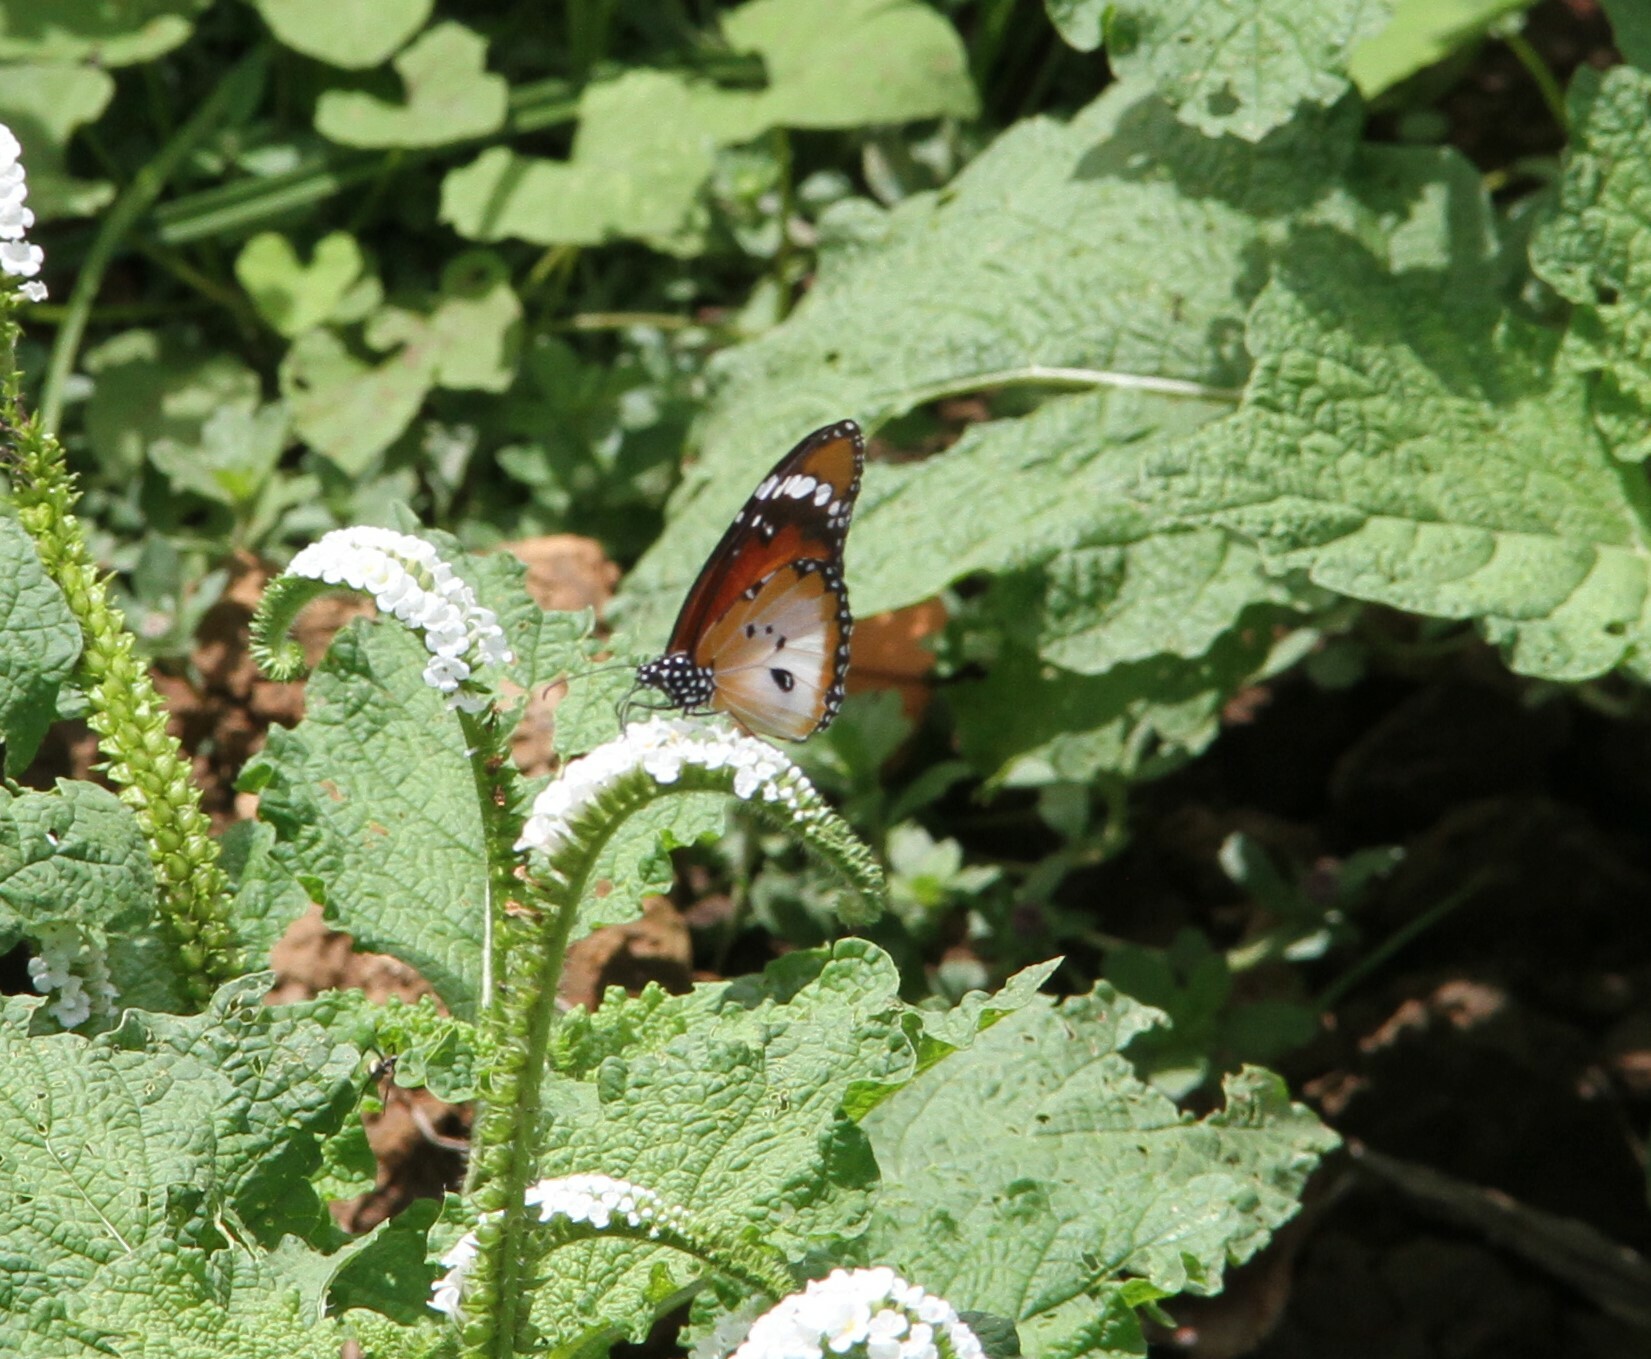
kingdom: Animalia
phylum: Arthropoda
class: Insecta
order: Lepidoptera
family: Nymphalidae
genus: Danaus
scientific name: Danaus chrysippus
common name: Plain tiger
